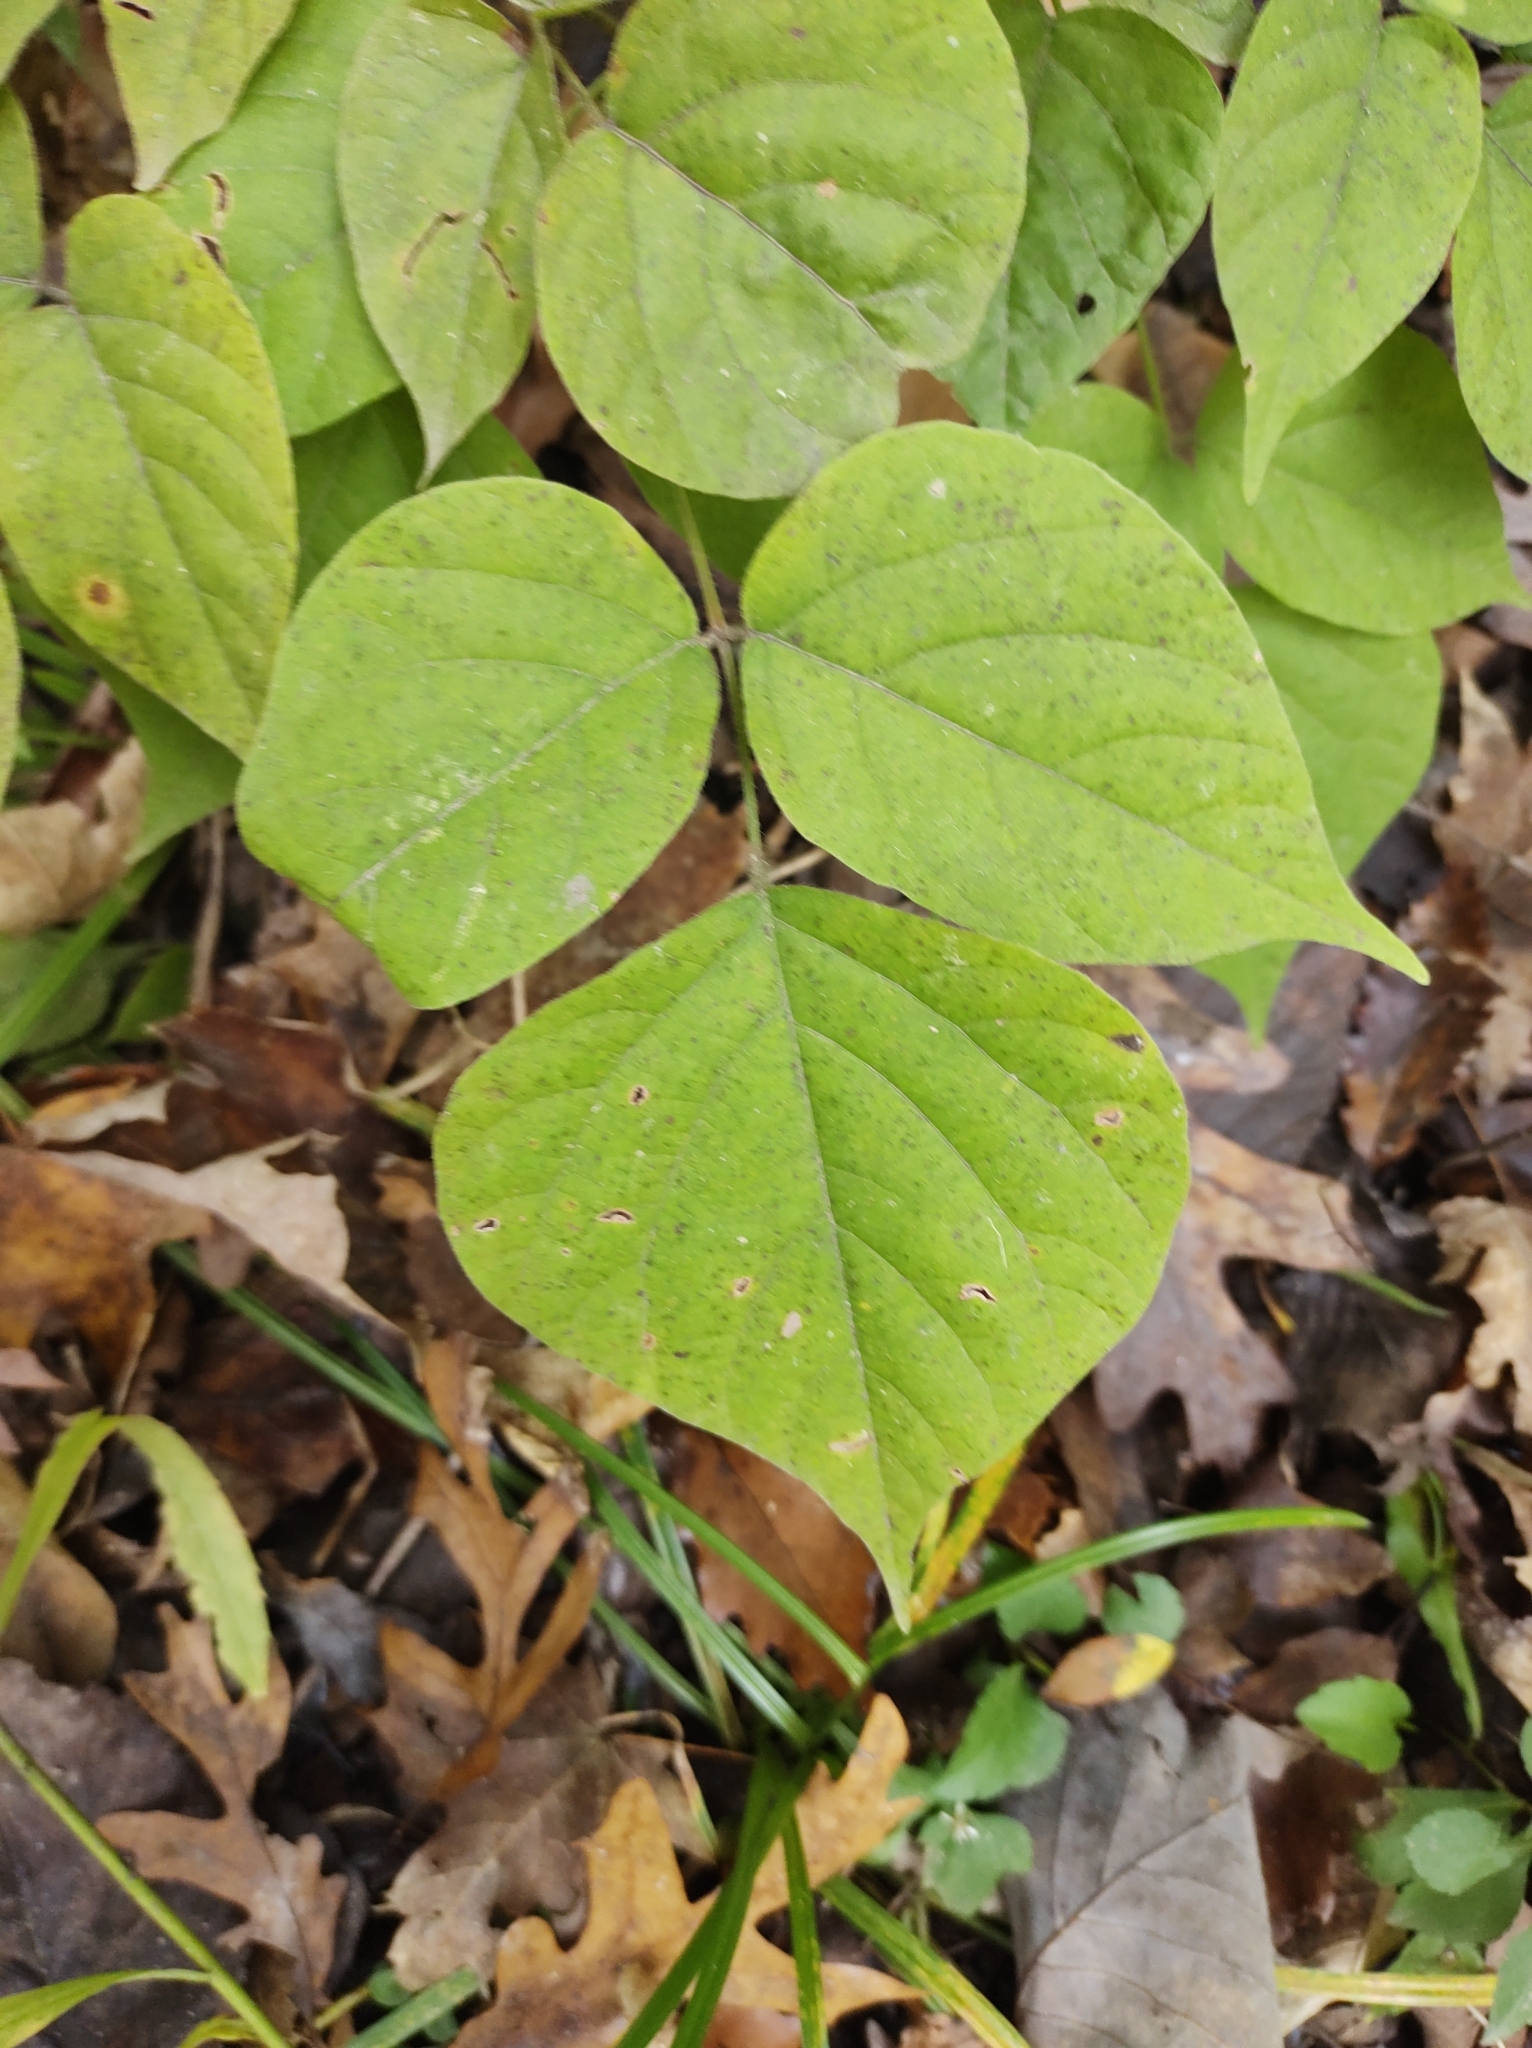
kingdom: Plantae
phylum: Tracheophyta
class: Magnoliopsida
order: Fabales
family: Fabaceae
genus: Hylodesmum
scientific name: Hylodesmum glutinosum
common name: Clustered-leaved tick-trefoil
